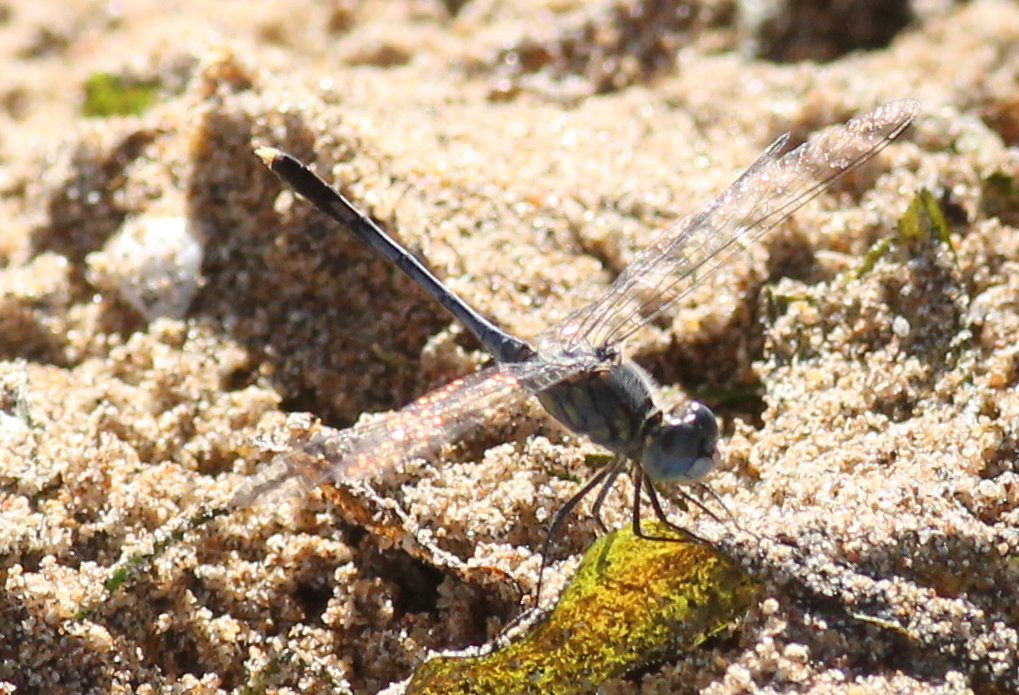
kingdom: Animalia
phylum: Arthropoda
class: Insecta
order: Odonata
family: Libellulidae
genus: Diplacodes
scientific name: Diplacodes trivialis
